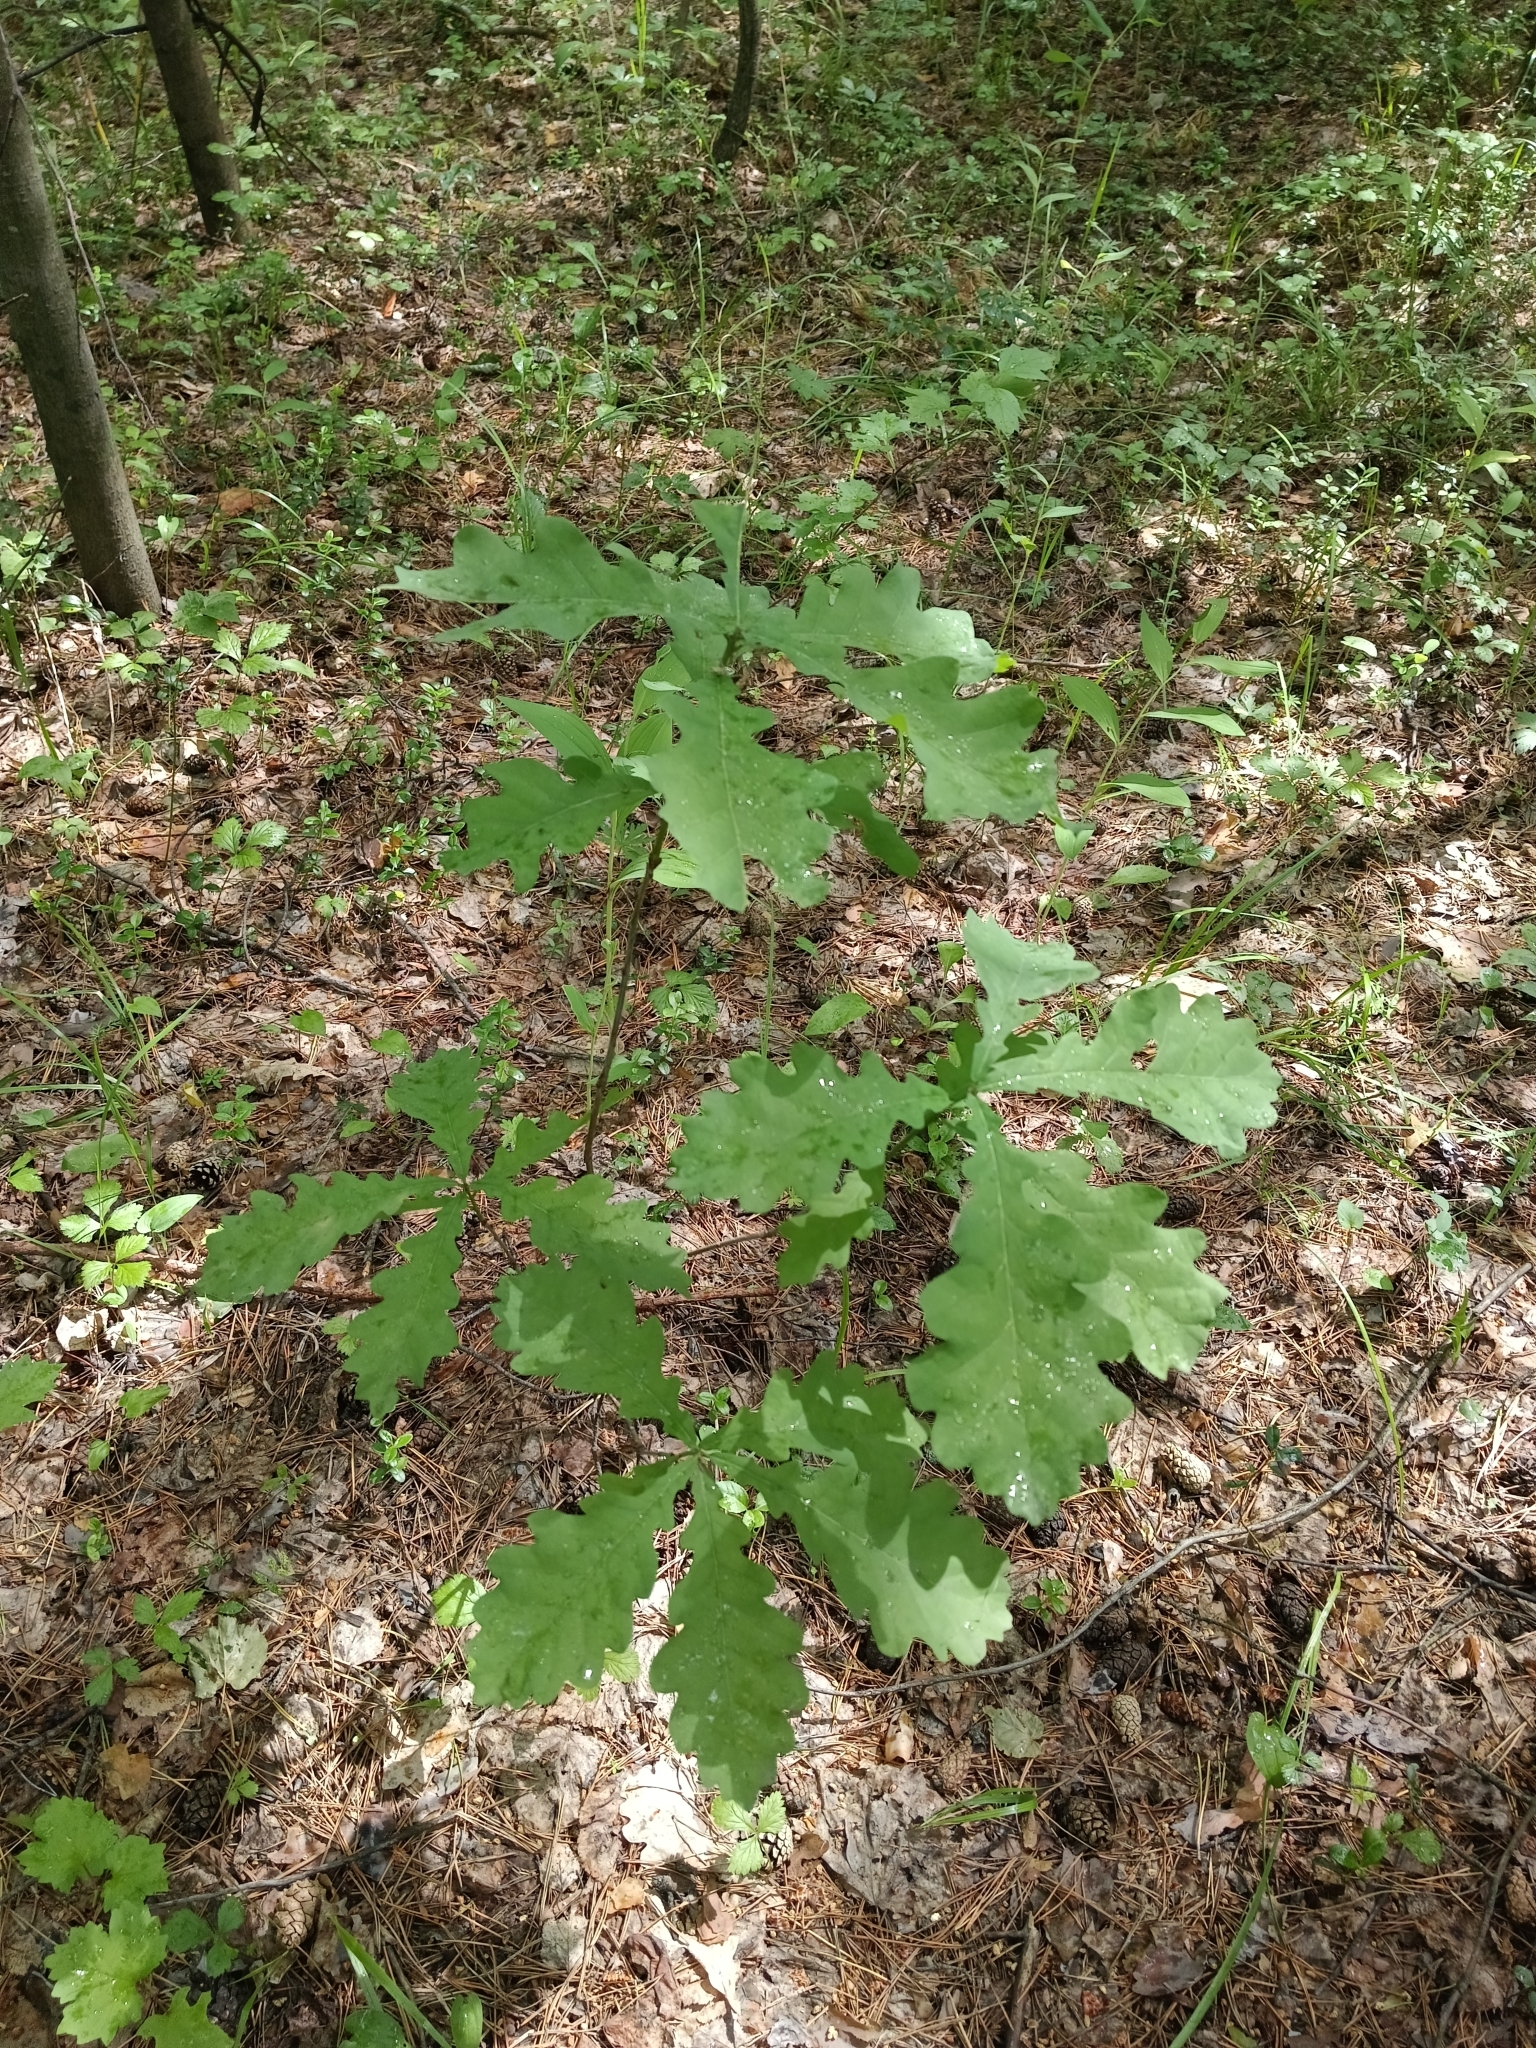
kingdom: Plantae
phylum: Tracheophyta
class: Magnoliopsida
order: Fagales
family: Fagaceae
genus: Quercus
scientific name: Quercus robur
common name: Pedunculate oak
